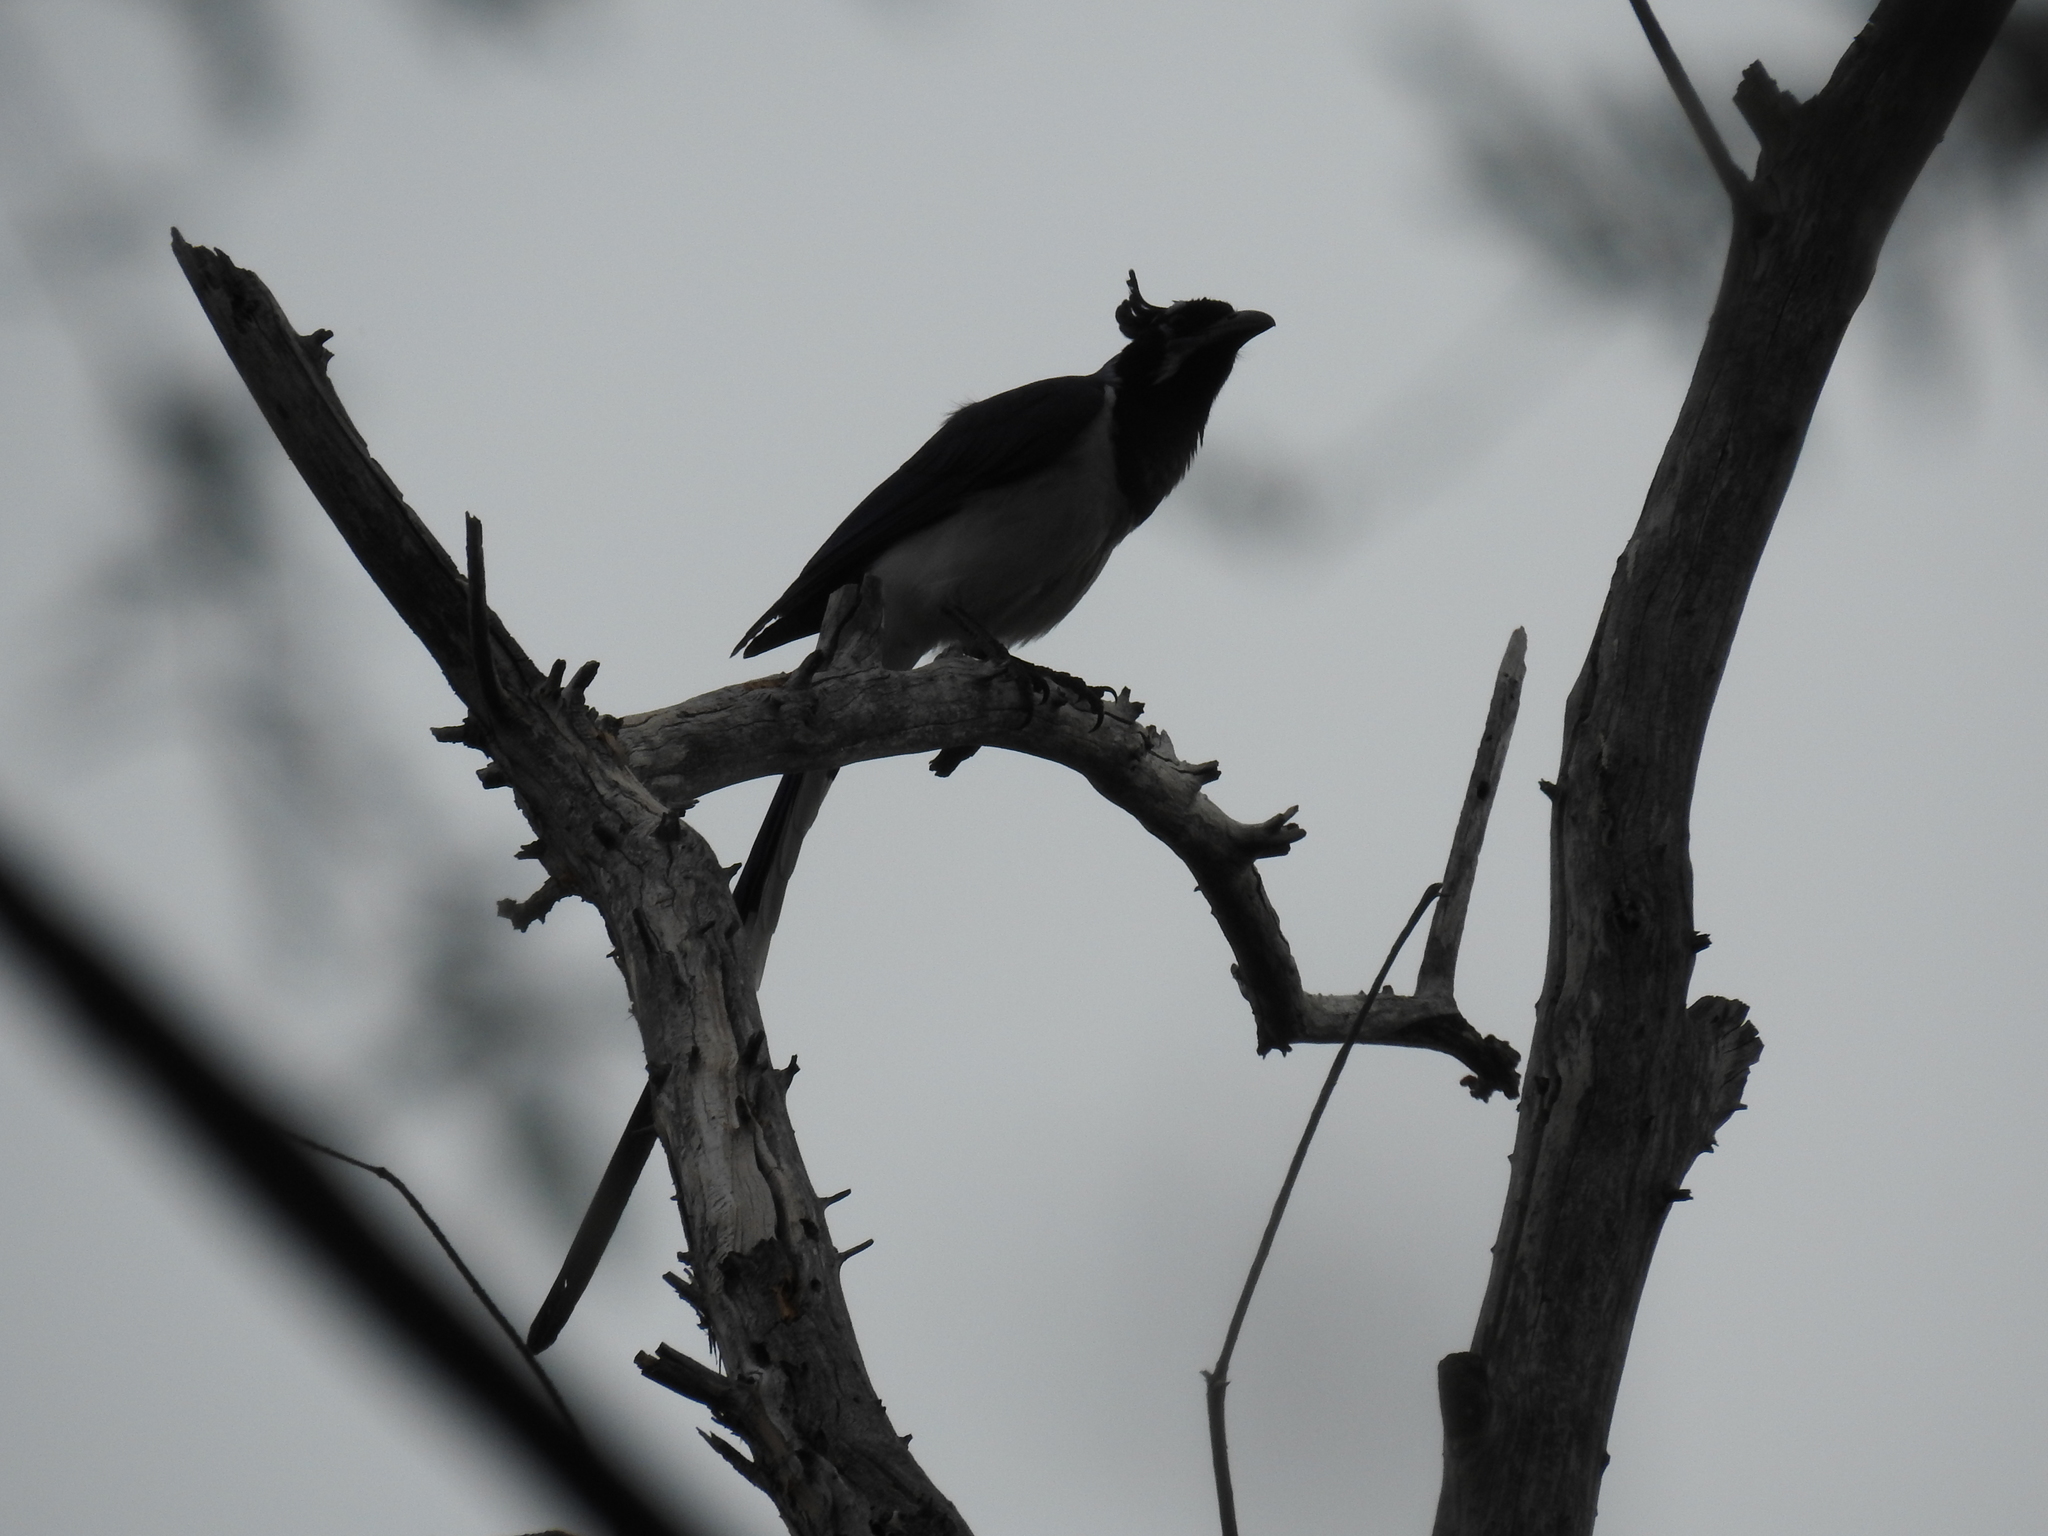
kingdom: Animalia
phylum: Chordata
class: Aves
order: Passeriformes
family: Corvidae
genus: Calocitta
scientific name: Calocitta colliei
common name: Black-throated magpie-jay
